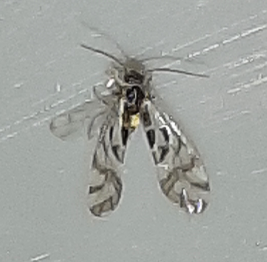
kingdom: Animalia
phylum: Arthropoda
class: Insecta
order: Psocodea
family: Stenopsocidae
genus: Graphopsocus
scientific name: Graphopsocus cruciatus
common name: Lizard bark louse
